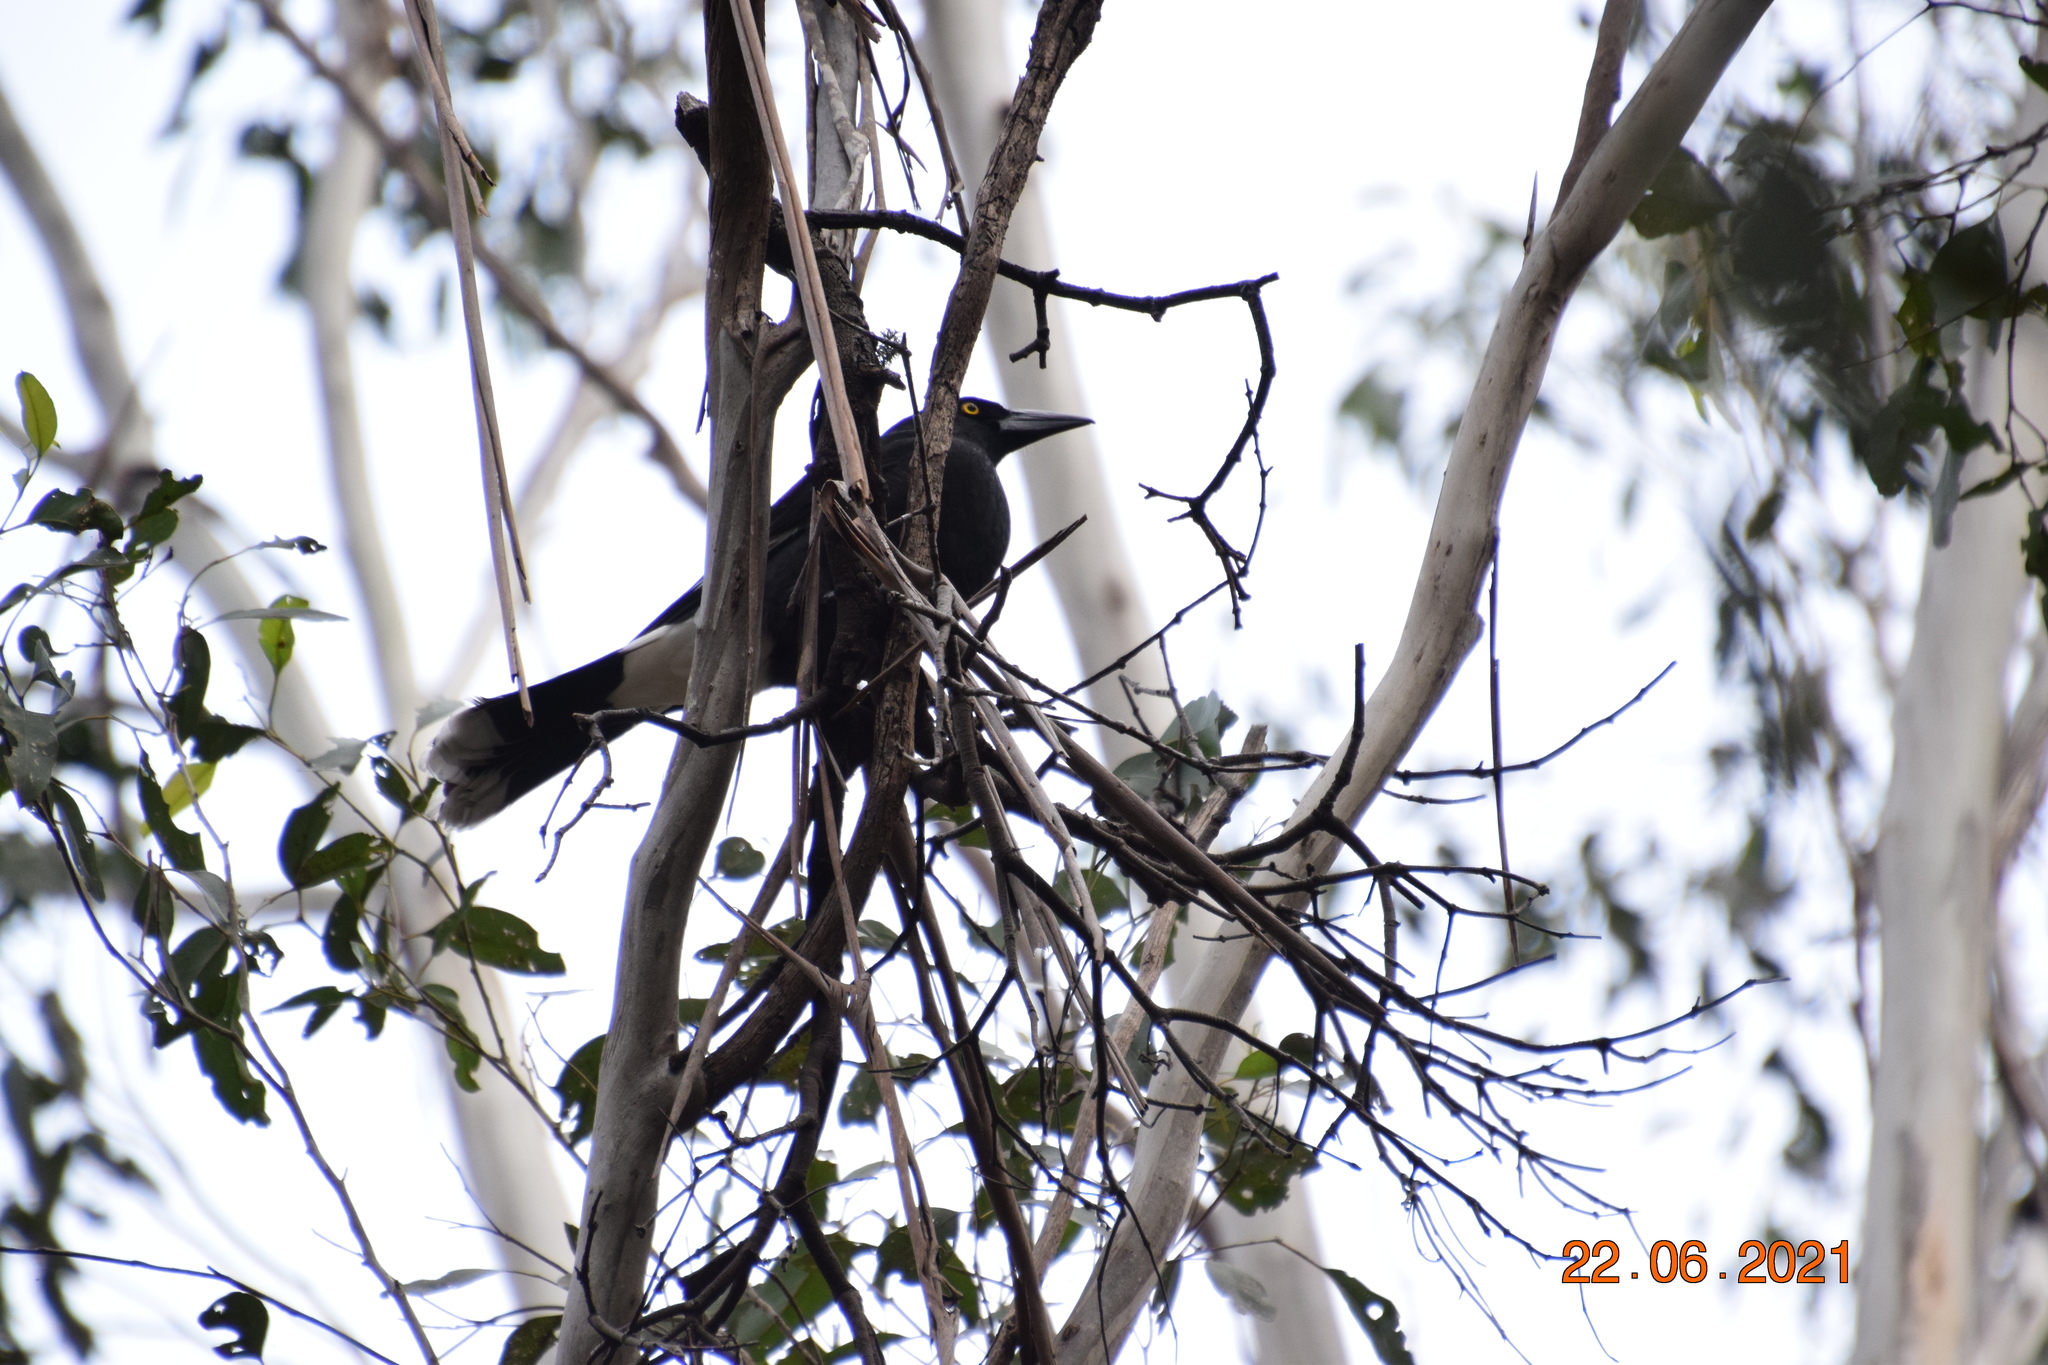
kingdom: Animalia
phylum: Chordata
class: Aves
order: Passeriformes
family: Cracticidae
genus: Strepera
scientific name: Strepera graculina
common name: Pied currawong
